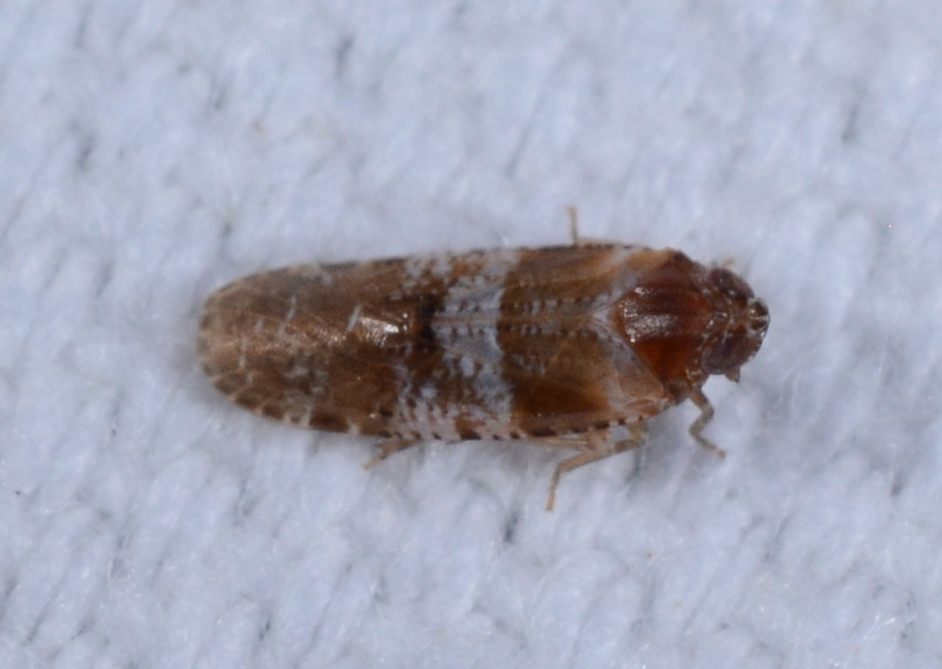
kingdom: Animalia
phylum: Arthropoda
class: Insecta
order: Hemiptera
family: Achilidae
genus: Catonia
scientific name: Catonia picta
